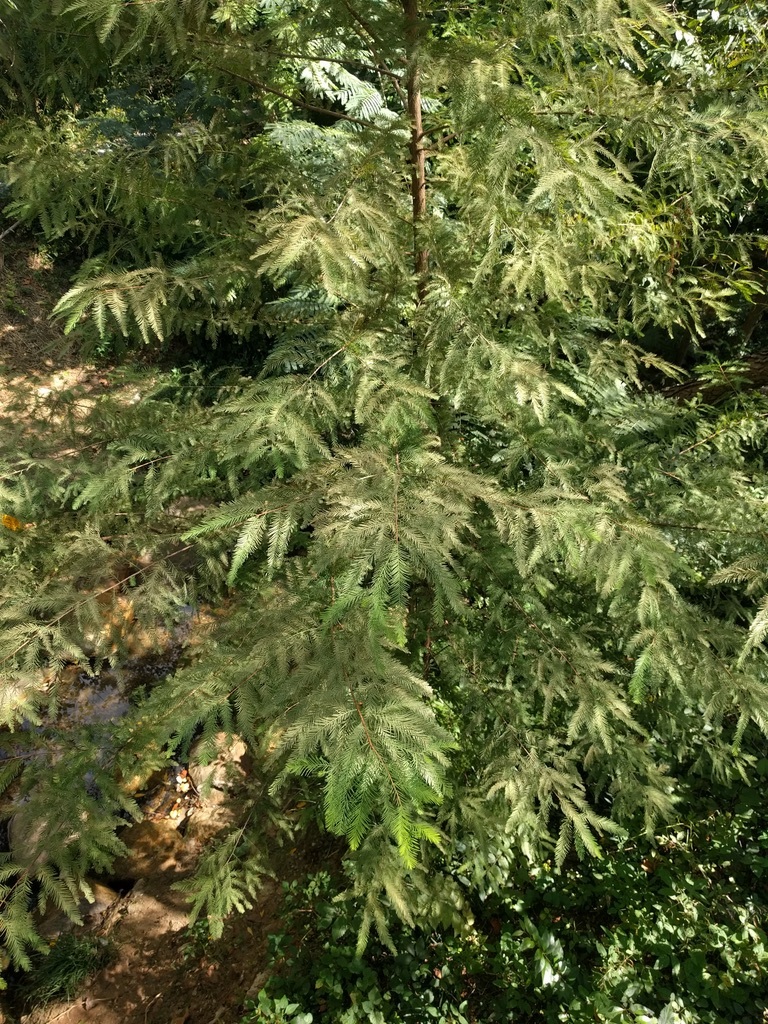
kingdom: Plantae
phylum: Tracheophyta
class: Pinopsida
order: Pinales
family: Cupressaceae
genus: Taxodium
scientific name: Taxodium distichum
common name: Bald cypress
